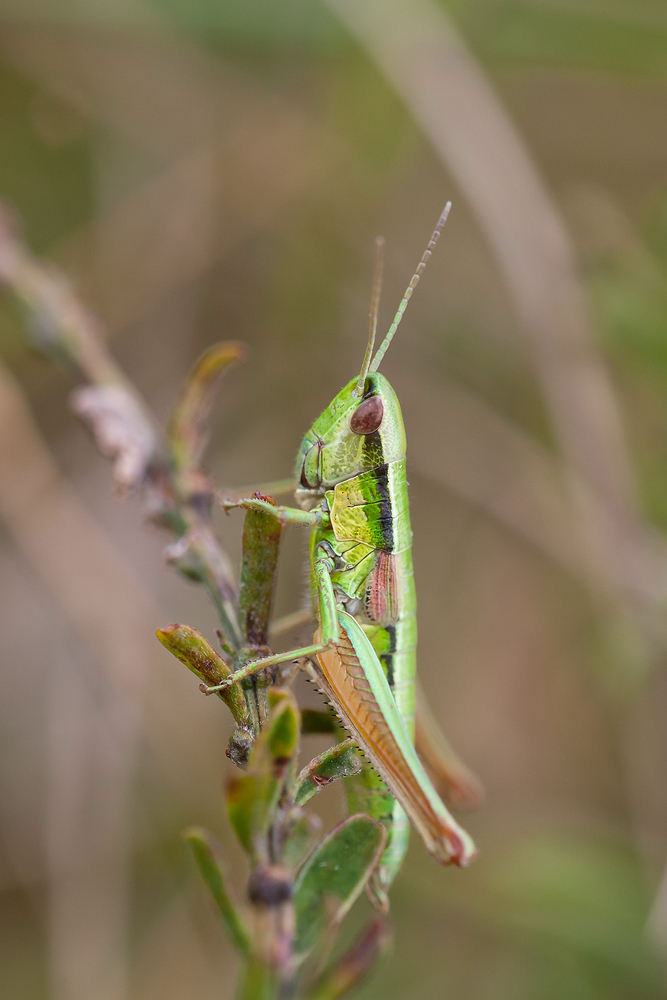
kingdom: Animalia
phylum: Arthropoda
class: Insecta
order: Orthoptera
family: Acrididae
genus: Euthystira
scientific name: Euthystira brachyptera
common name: Small gold grasshopper
